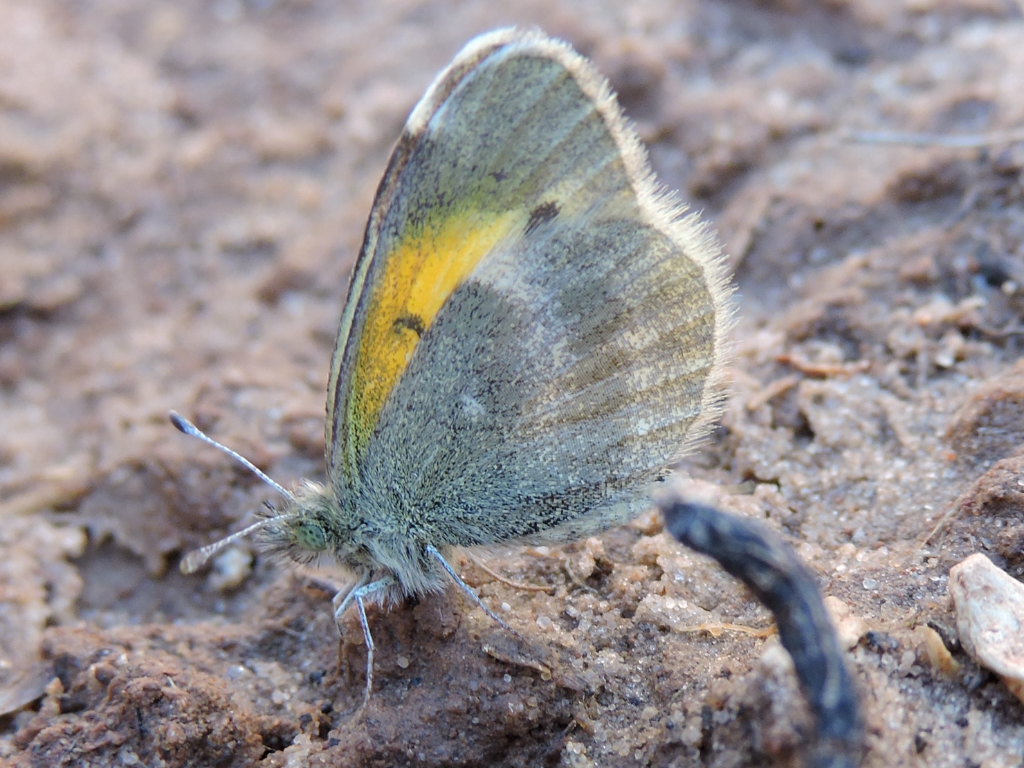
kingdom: Animalia
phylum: Arthropoda
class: Insecta
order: Lepidoptera
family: Pieridae
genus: Nathalis
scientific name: Nathalis iole
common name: Dainty sulphur
